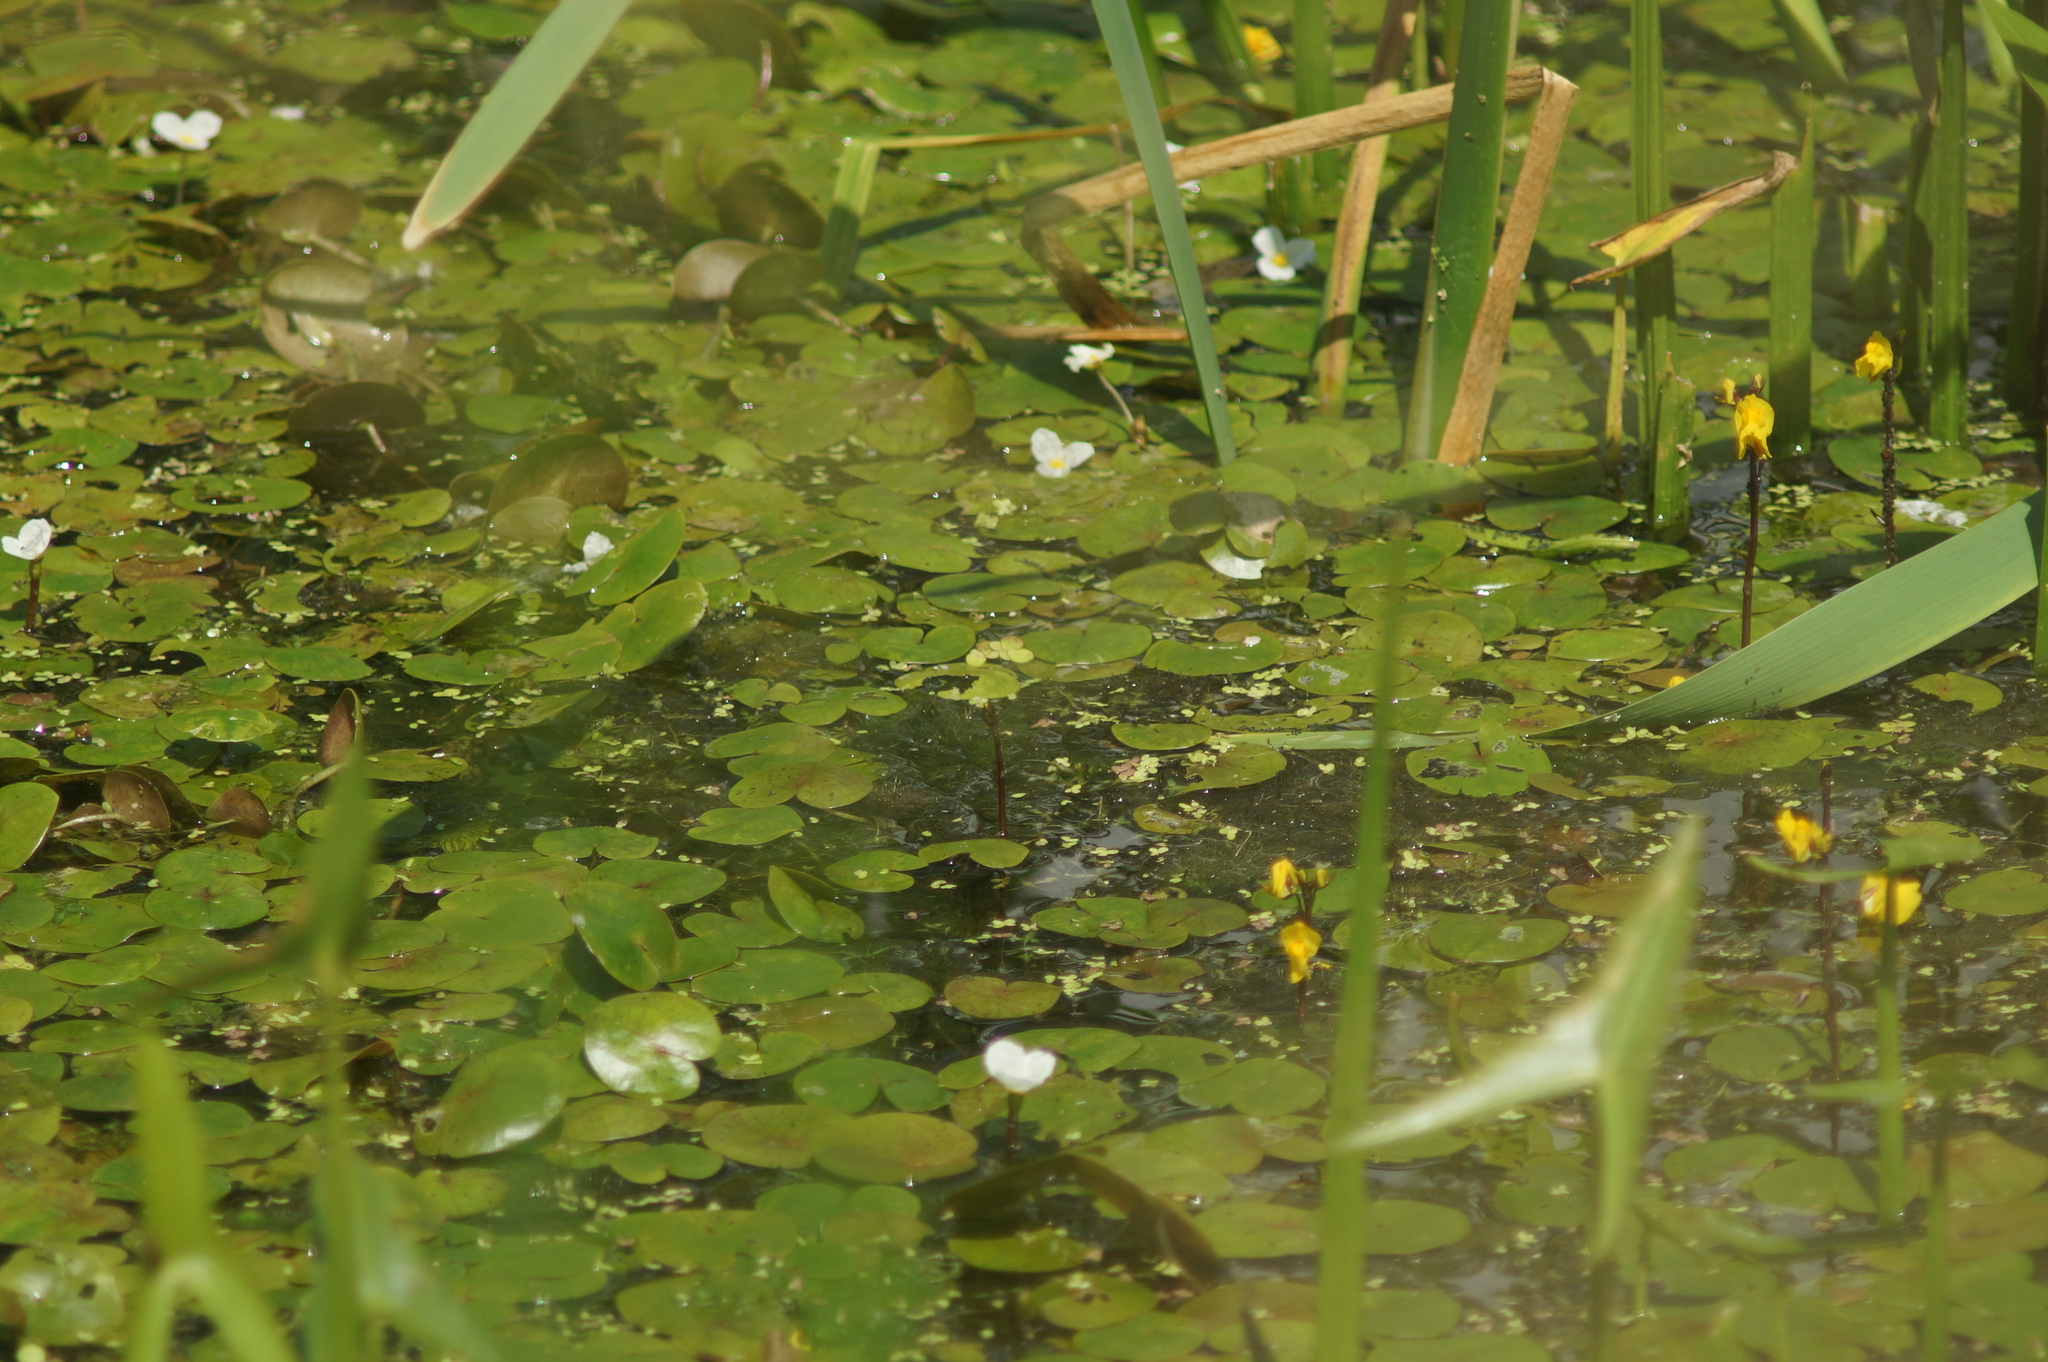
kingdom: Plantae
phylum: Tracheophyta
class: Liliopsida
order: Alismatales
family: Hydrocharitaceae
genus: Hydrocharis
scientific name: Hydrocharis morsus-ranae
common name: Frogbit
